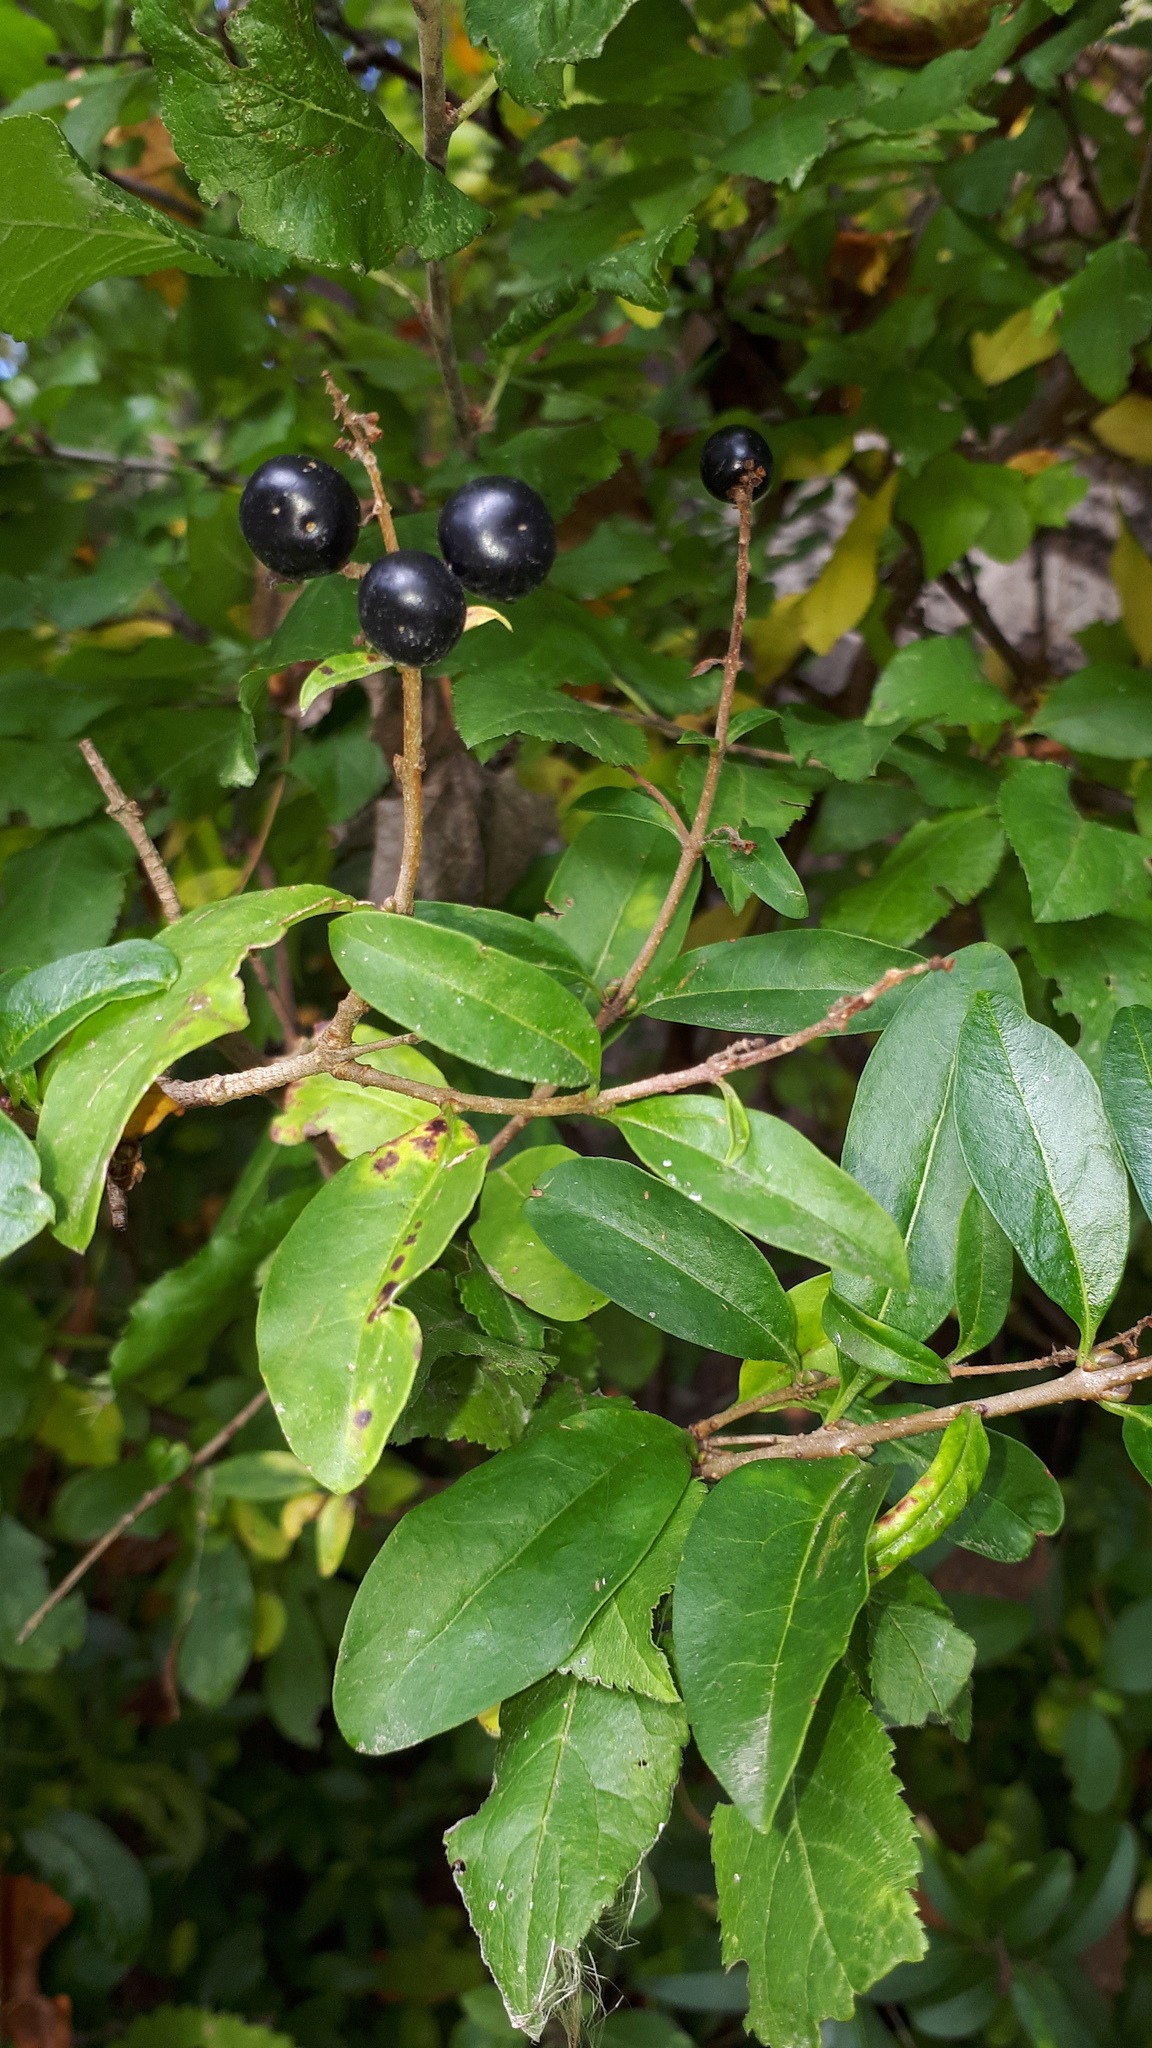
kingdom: Plantae
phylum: Tracheophyta
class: Magnoliopsida
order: Lamiales
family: Oleaceae
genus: Ligustrum
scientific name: Ligustrum vulgare
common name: Wild privet
